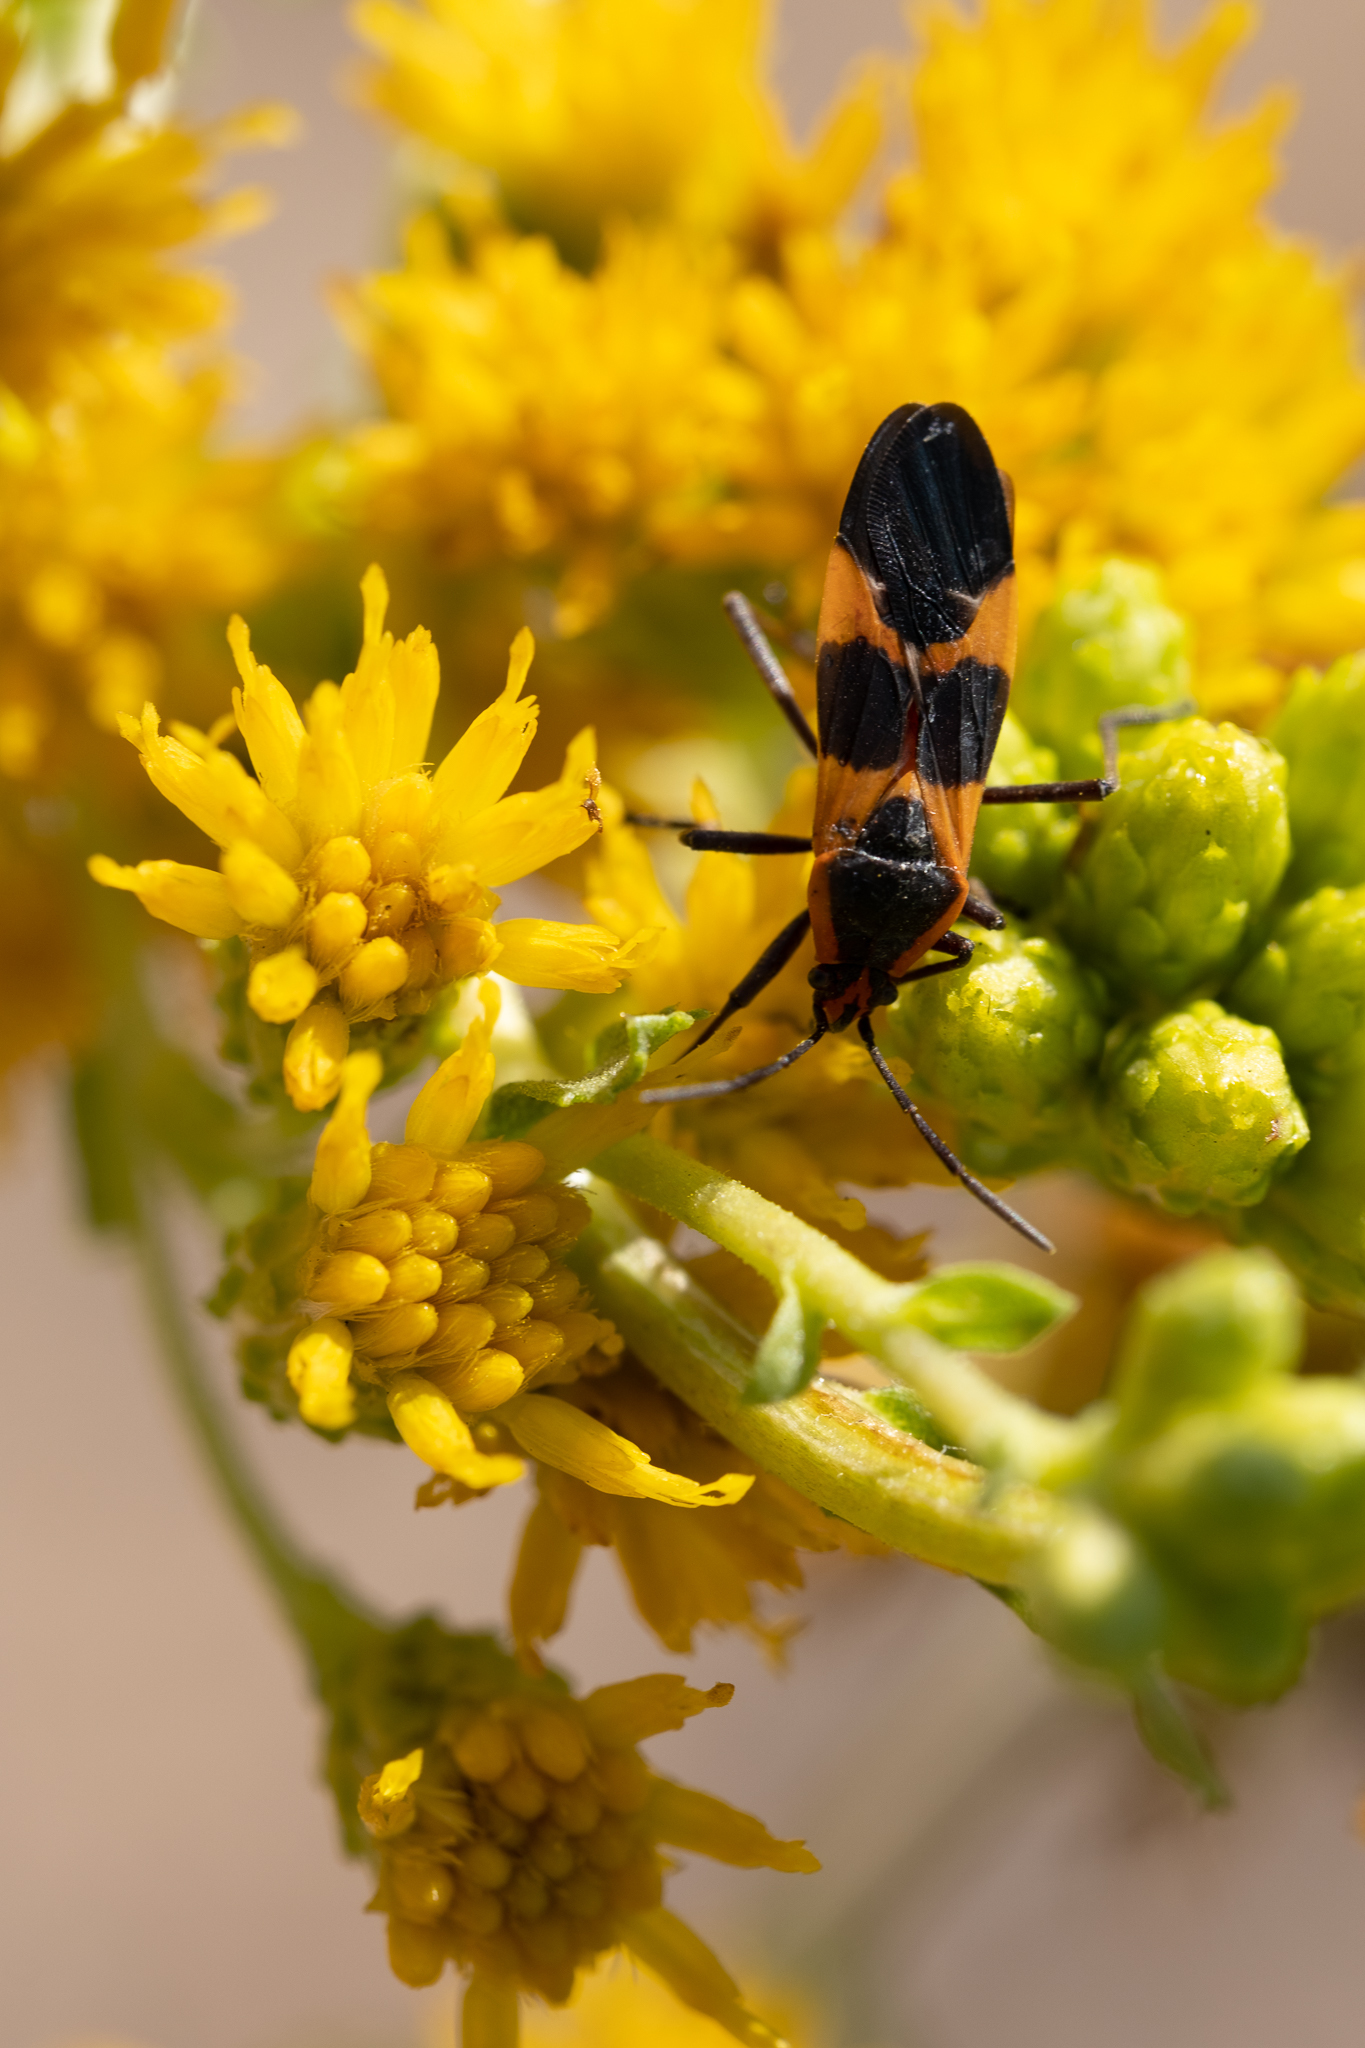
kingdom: Animalia
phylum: Arthropoda
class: Insecta
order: Hemiptera
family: Lygaeidae
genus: Oncopeltus
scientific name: Oncopeltus fasciatus
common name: Large milkweed bug
